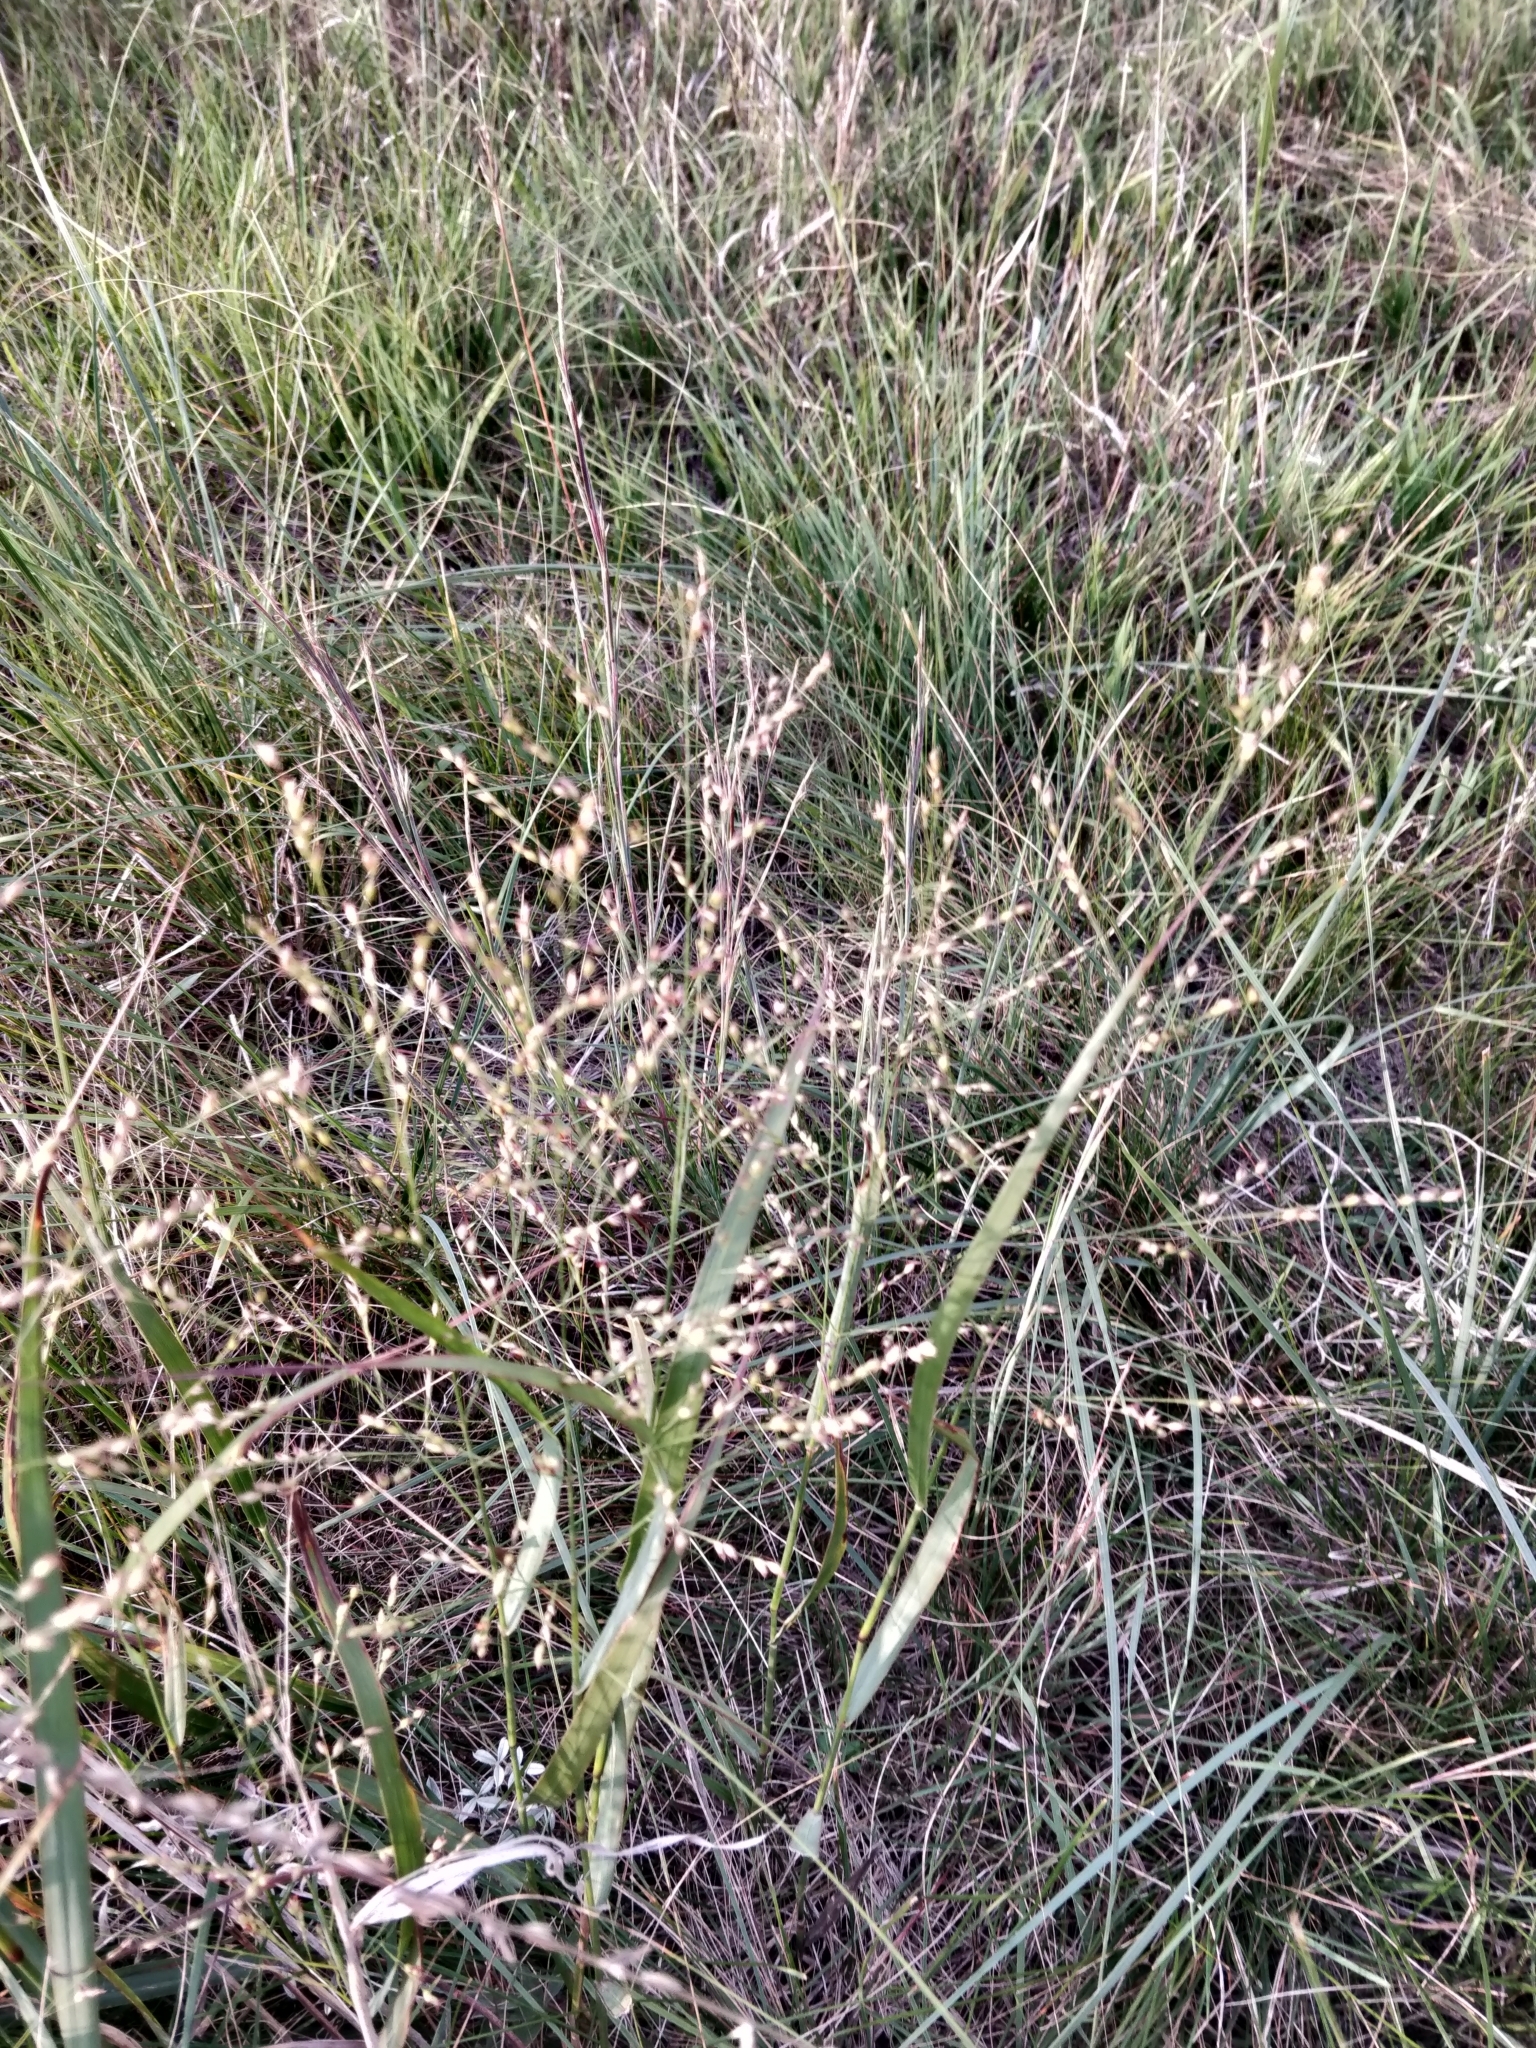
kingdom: Plantae
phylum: Tracheophyta
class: Liliopsida
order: Poales
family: Poaceae
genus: Panicum
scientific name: Panicum virgatum
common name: Switchgrass
